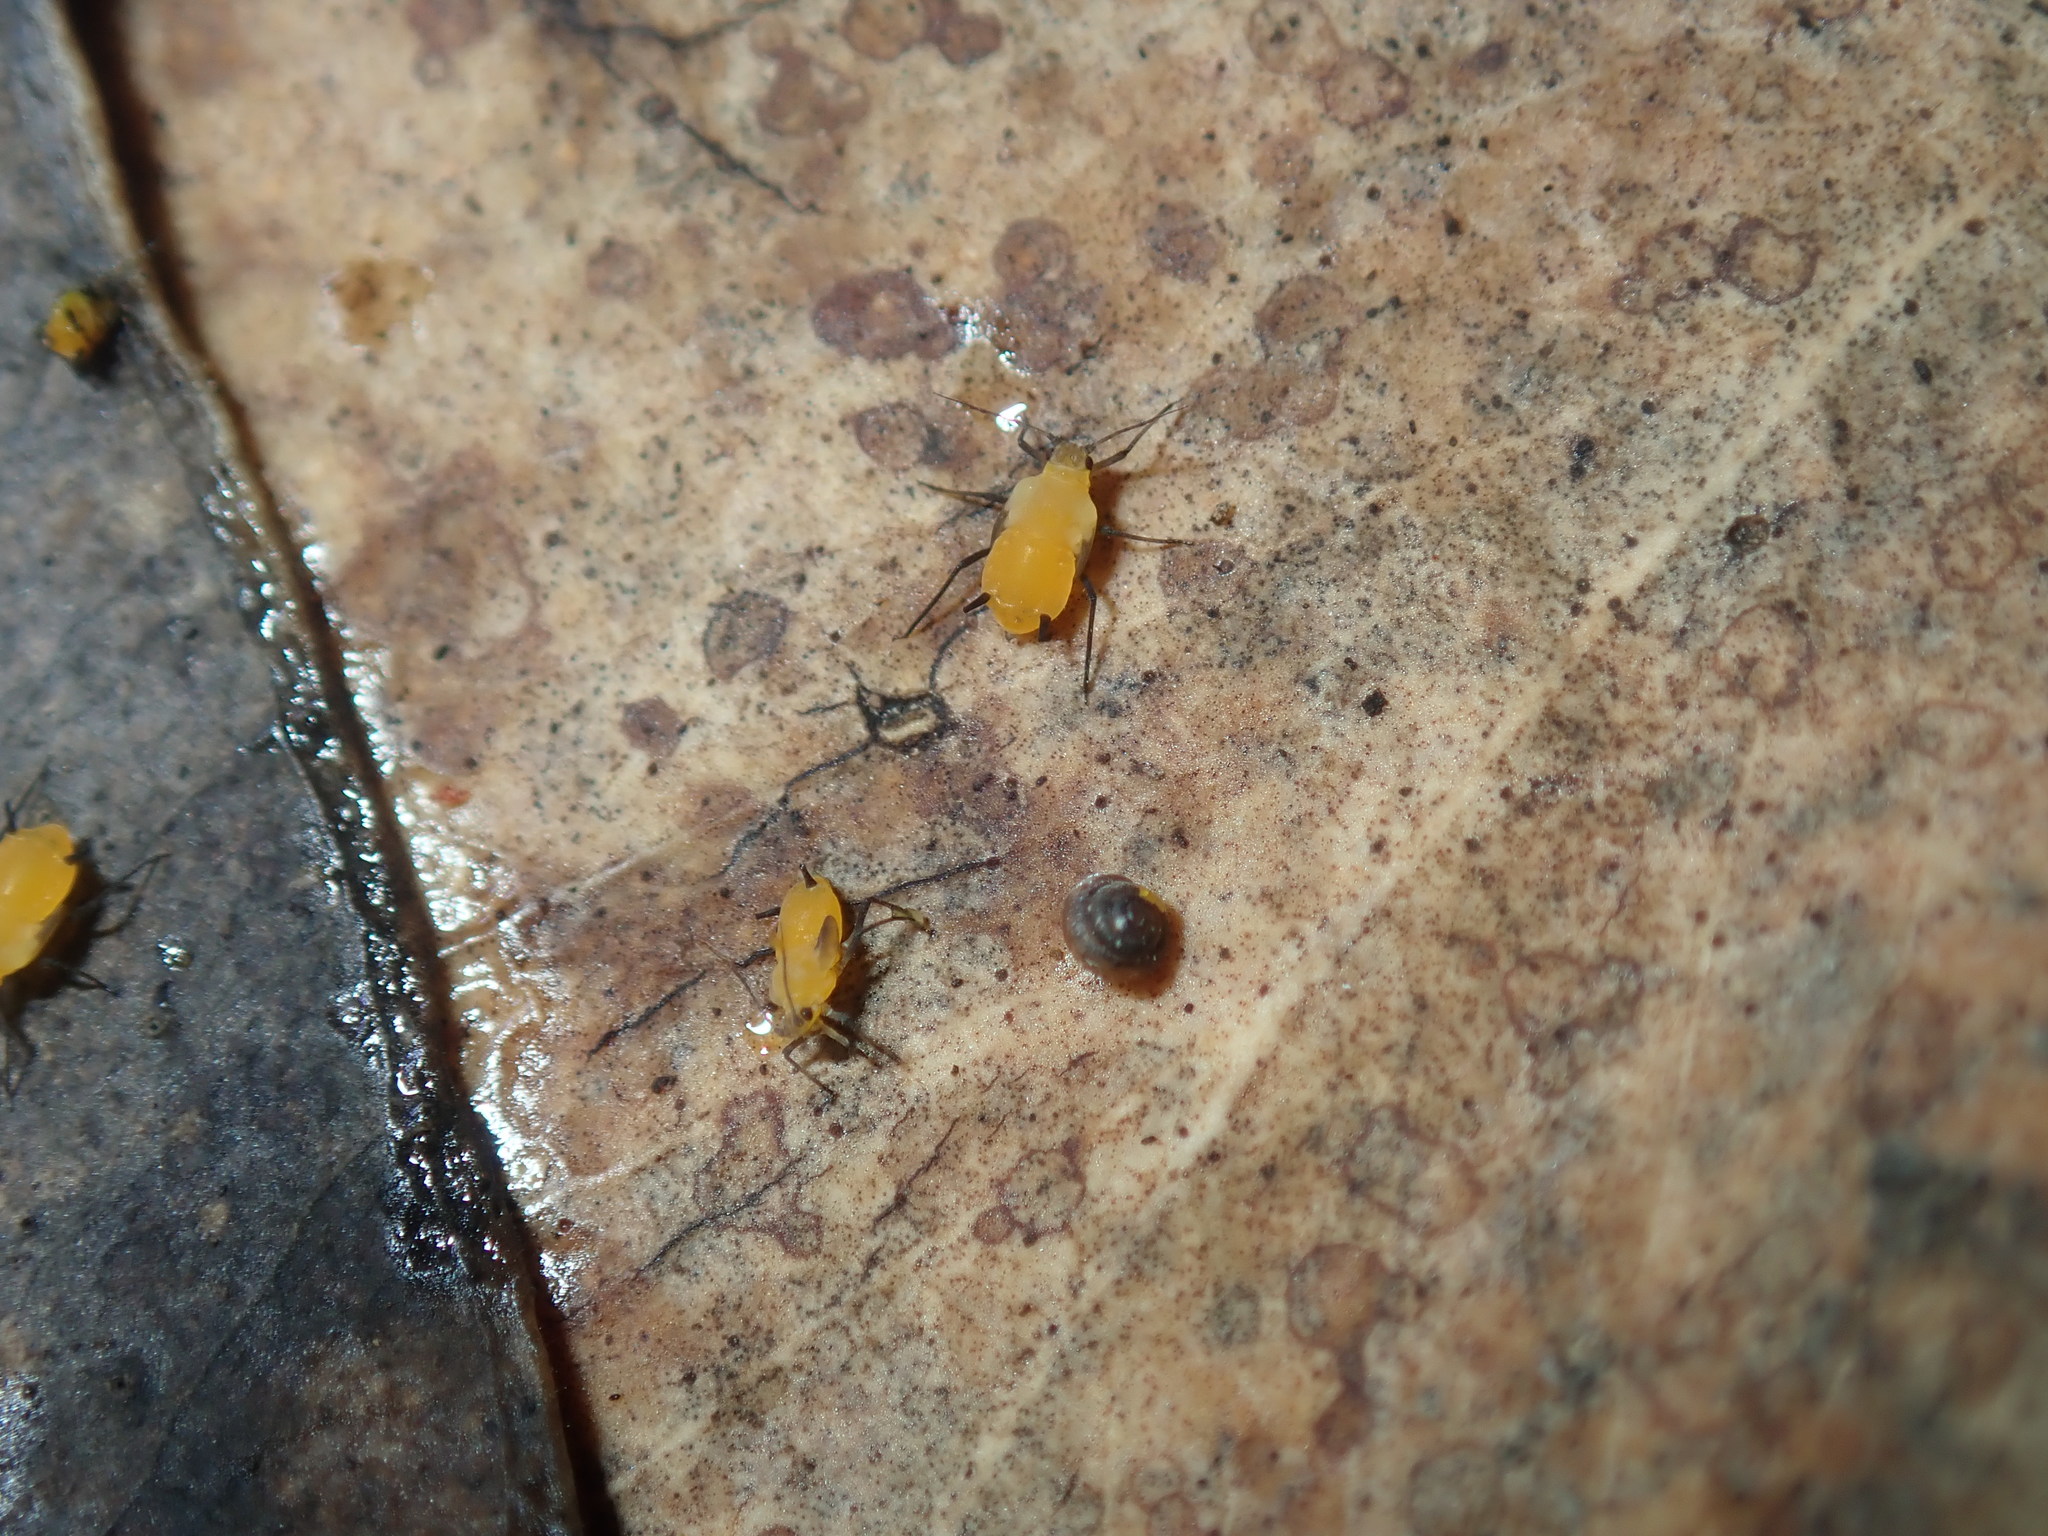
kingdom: Animalia
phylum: Arthropoda
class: Insecta
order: Hemiptera
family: Aphididae
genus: Aphis
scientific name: Aphis nerii
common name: Oleander aphid
